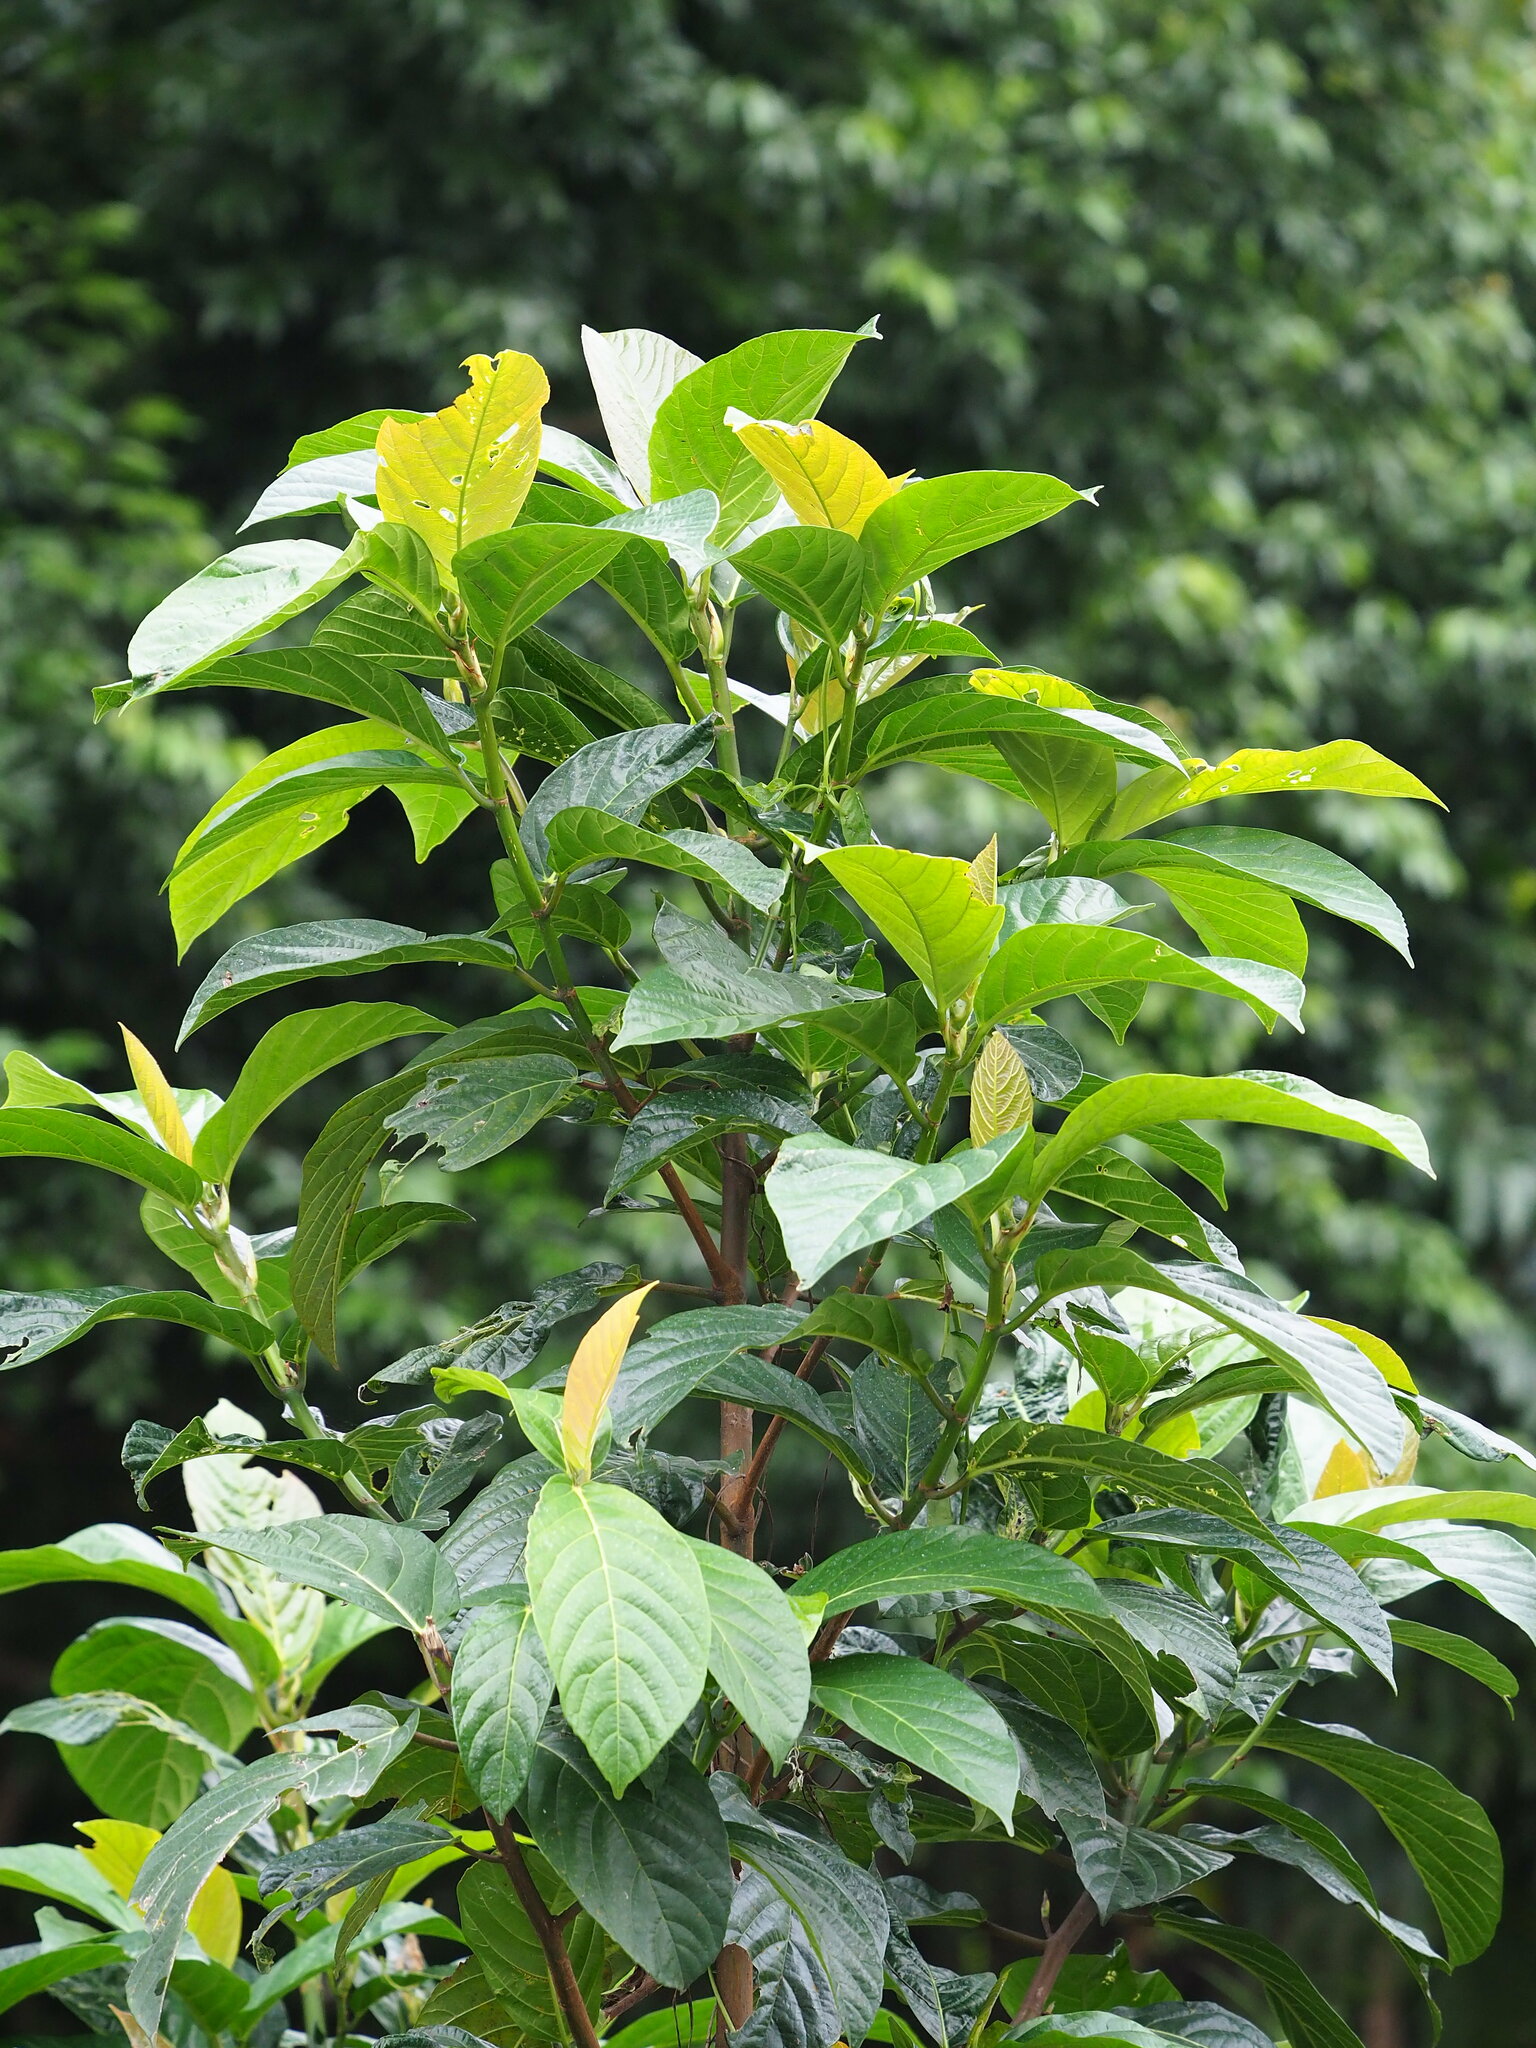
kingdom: Plantae
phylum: Tracheophyta
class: Magnoliopsida
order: Rosales
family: Moraceae
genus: Ficus
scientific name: Ficus benguetensis
